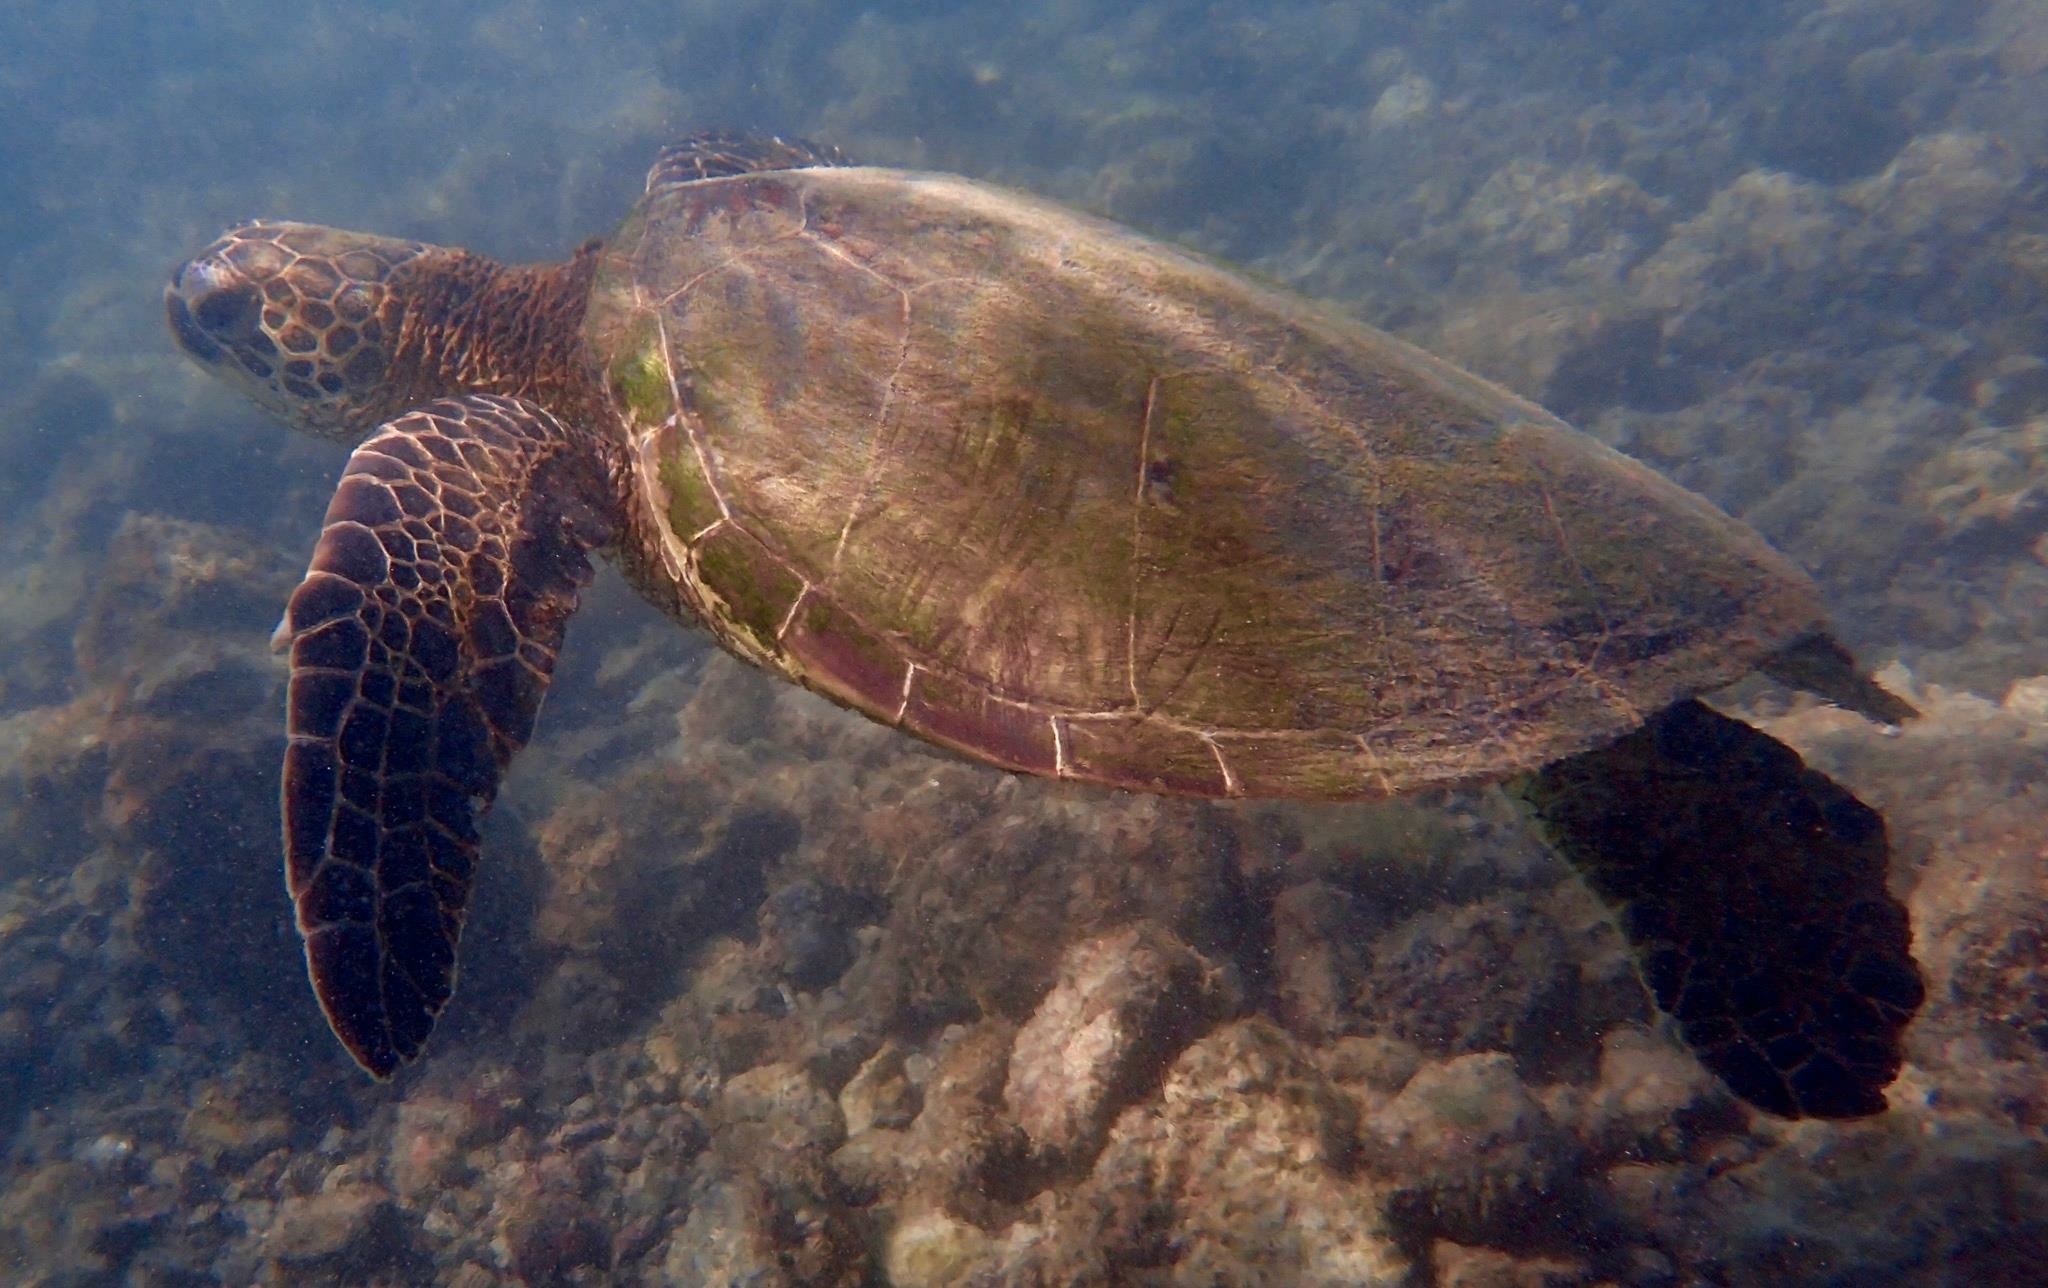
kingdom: Animalia
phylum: Chordata
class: Testudines
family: Cheloniidae
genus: Chelonia
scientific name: Chelonia mydas
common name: Green turtle
